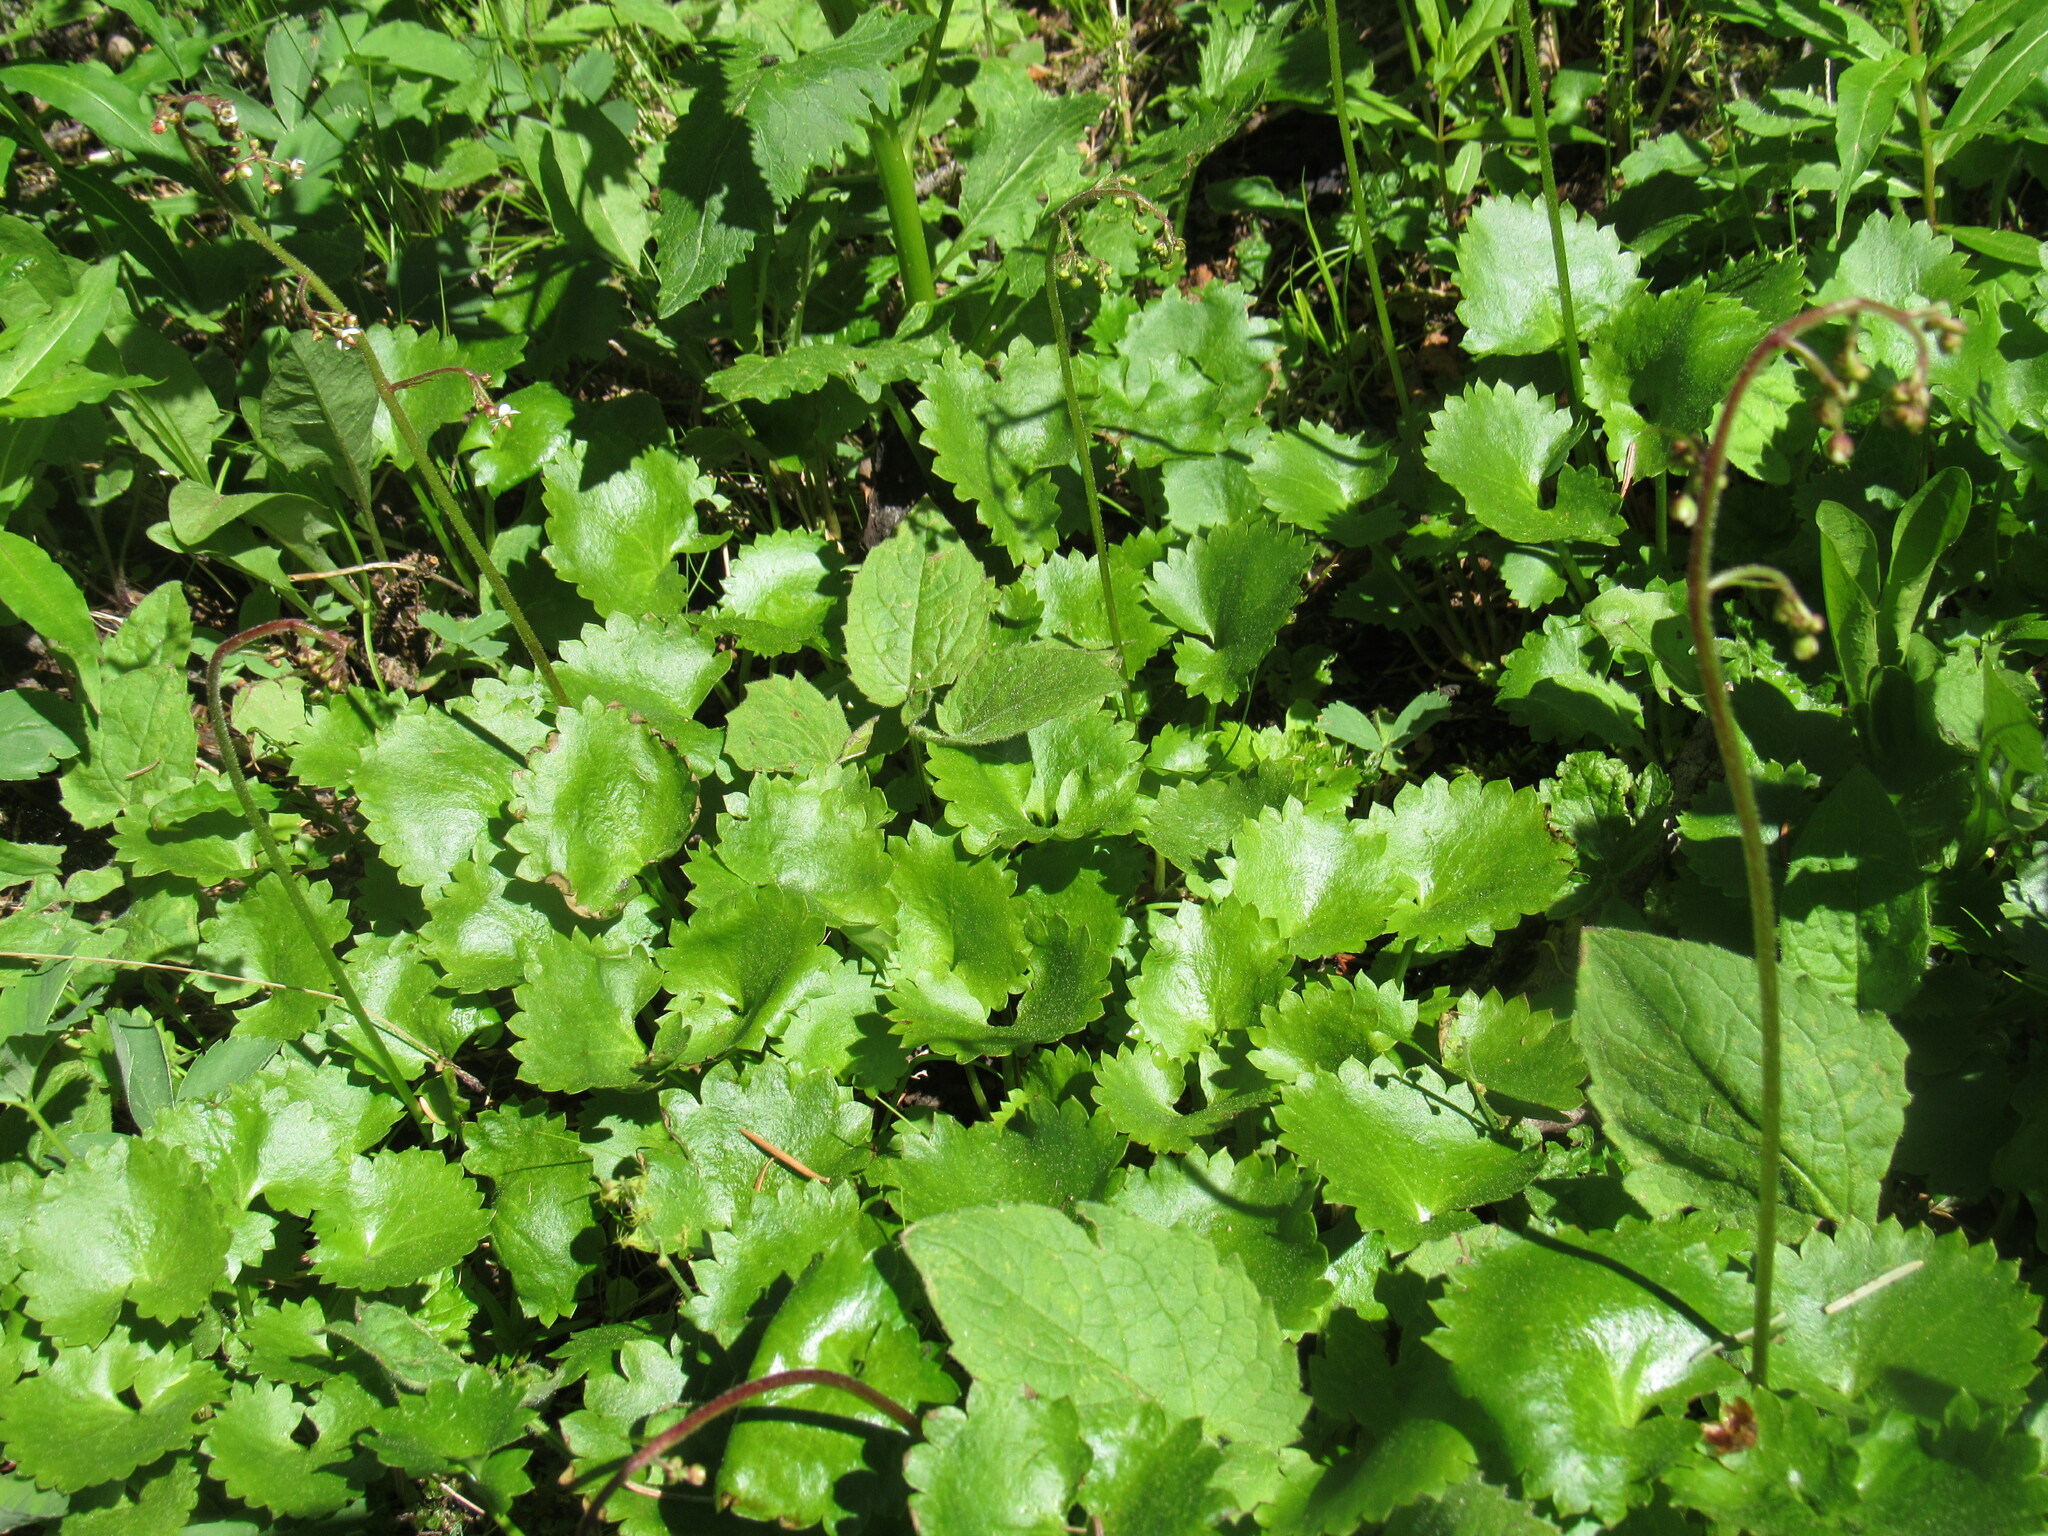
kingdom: Plantae
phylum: Tracheophyta
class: Magnoliopsida
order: Saxifragales
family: Saxifragaceae
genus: Micranthes
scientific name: Micranthes odontoloma
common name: Brook saxifrage
